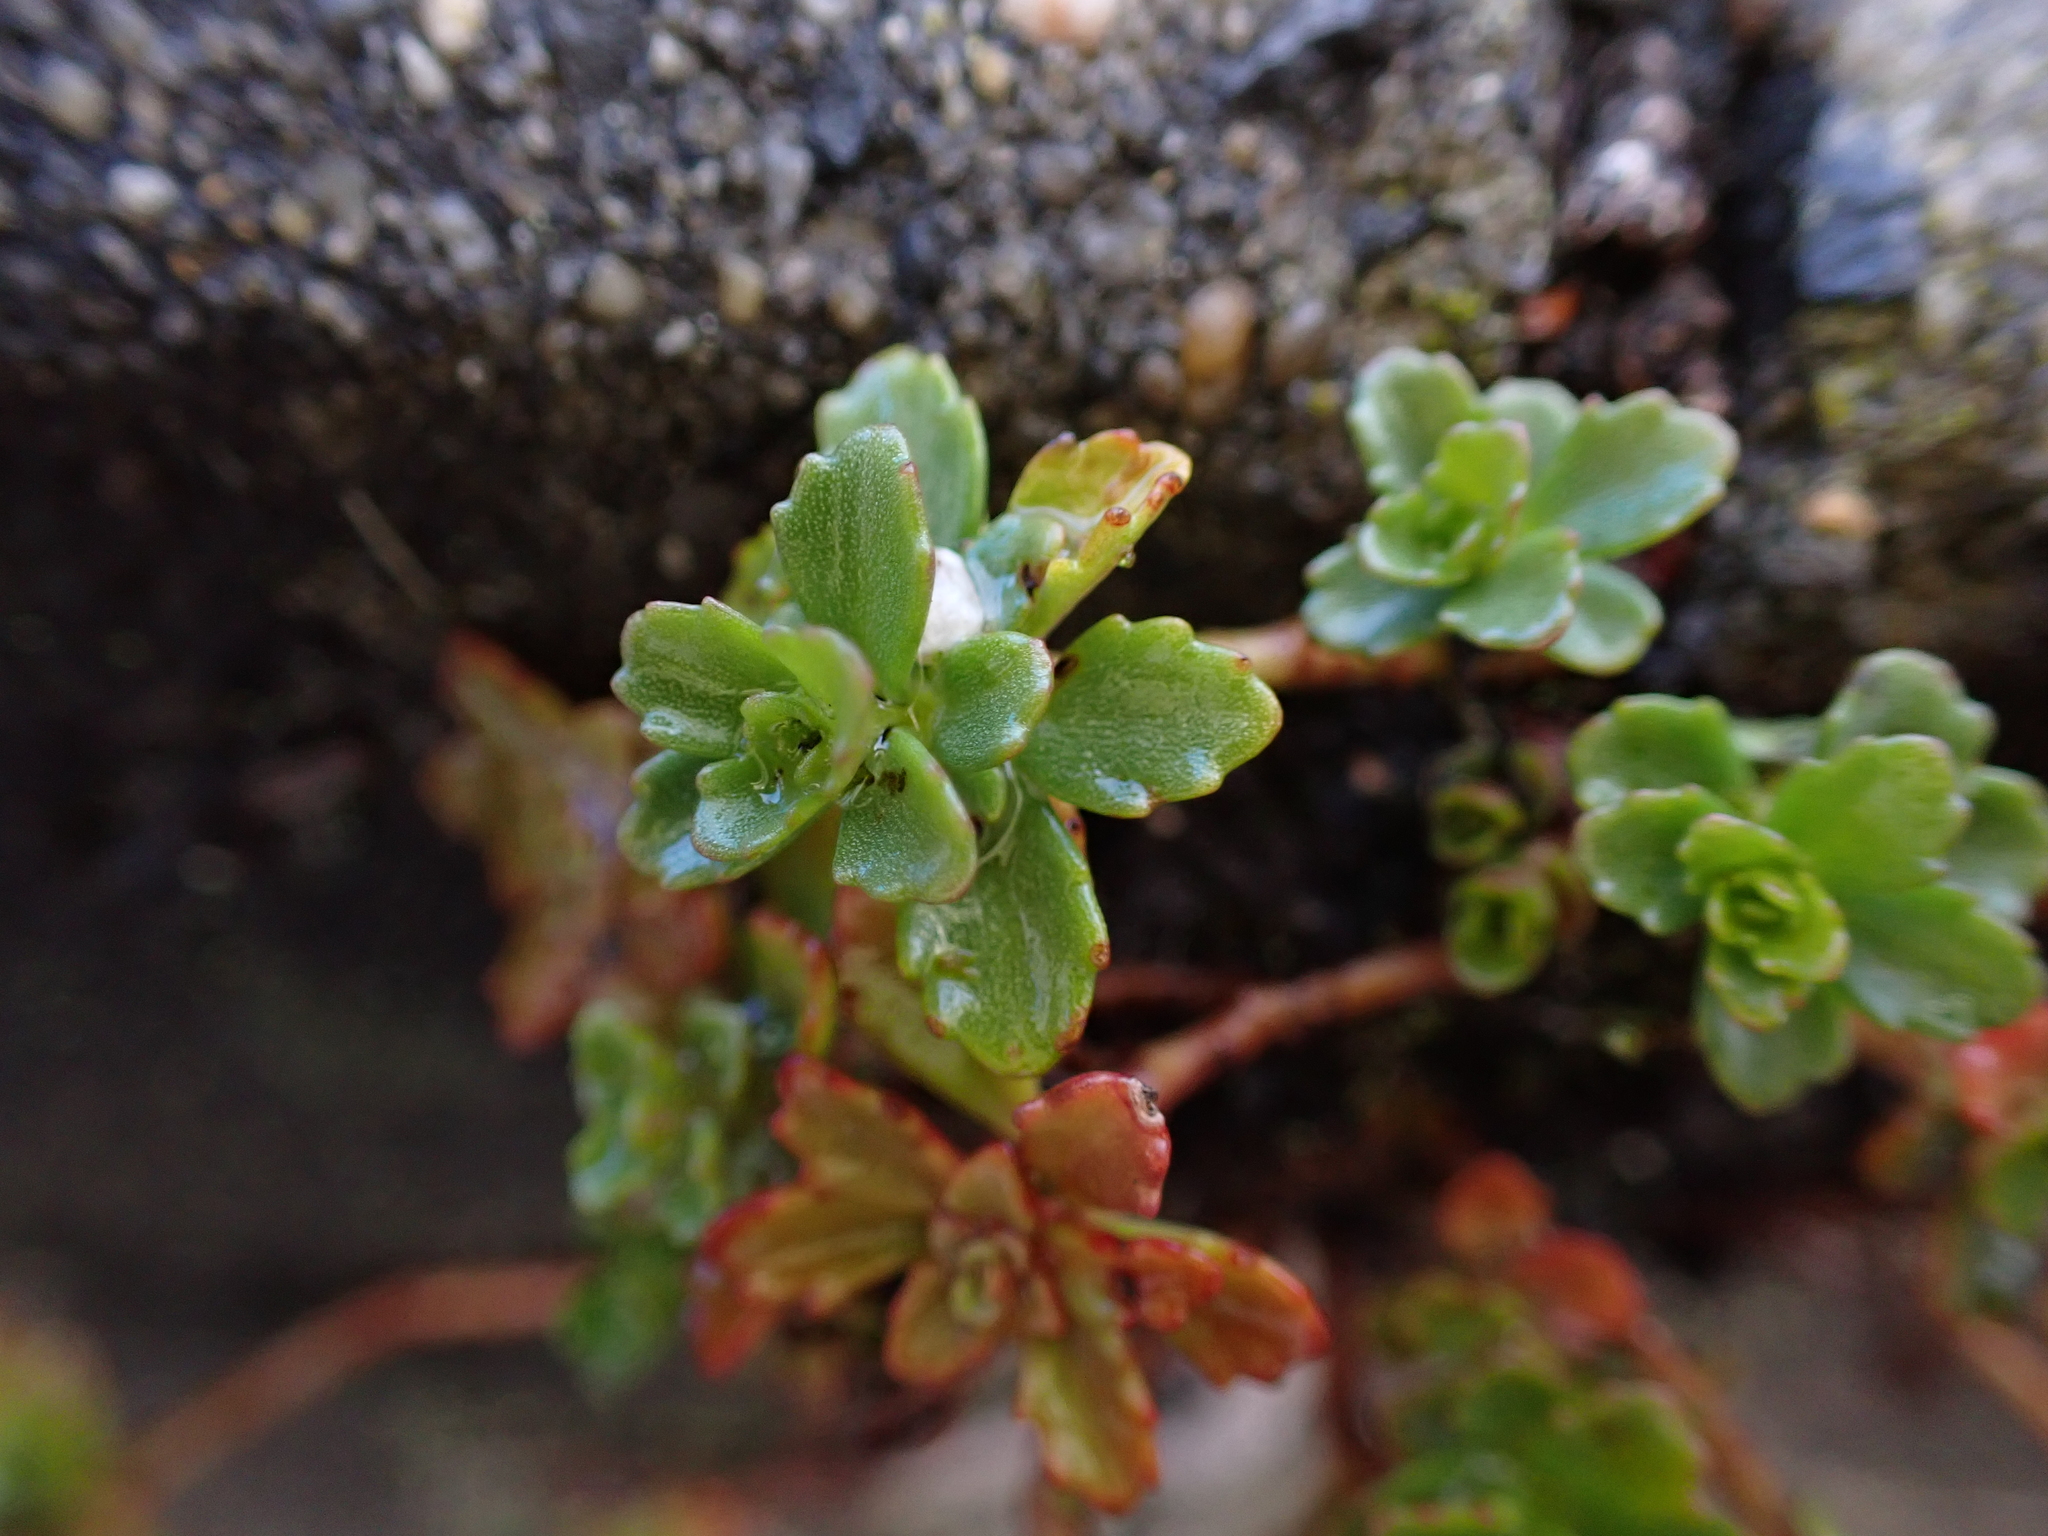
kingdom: Plantae
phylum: Tracheophyta
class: Magnoliopsida
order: Saxifragales
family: Crassulaceae
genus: Phedimus
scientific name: Phedimus hybridus
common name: Hybrid stonecrop
